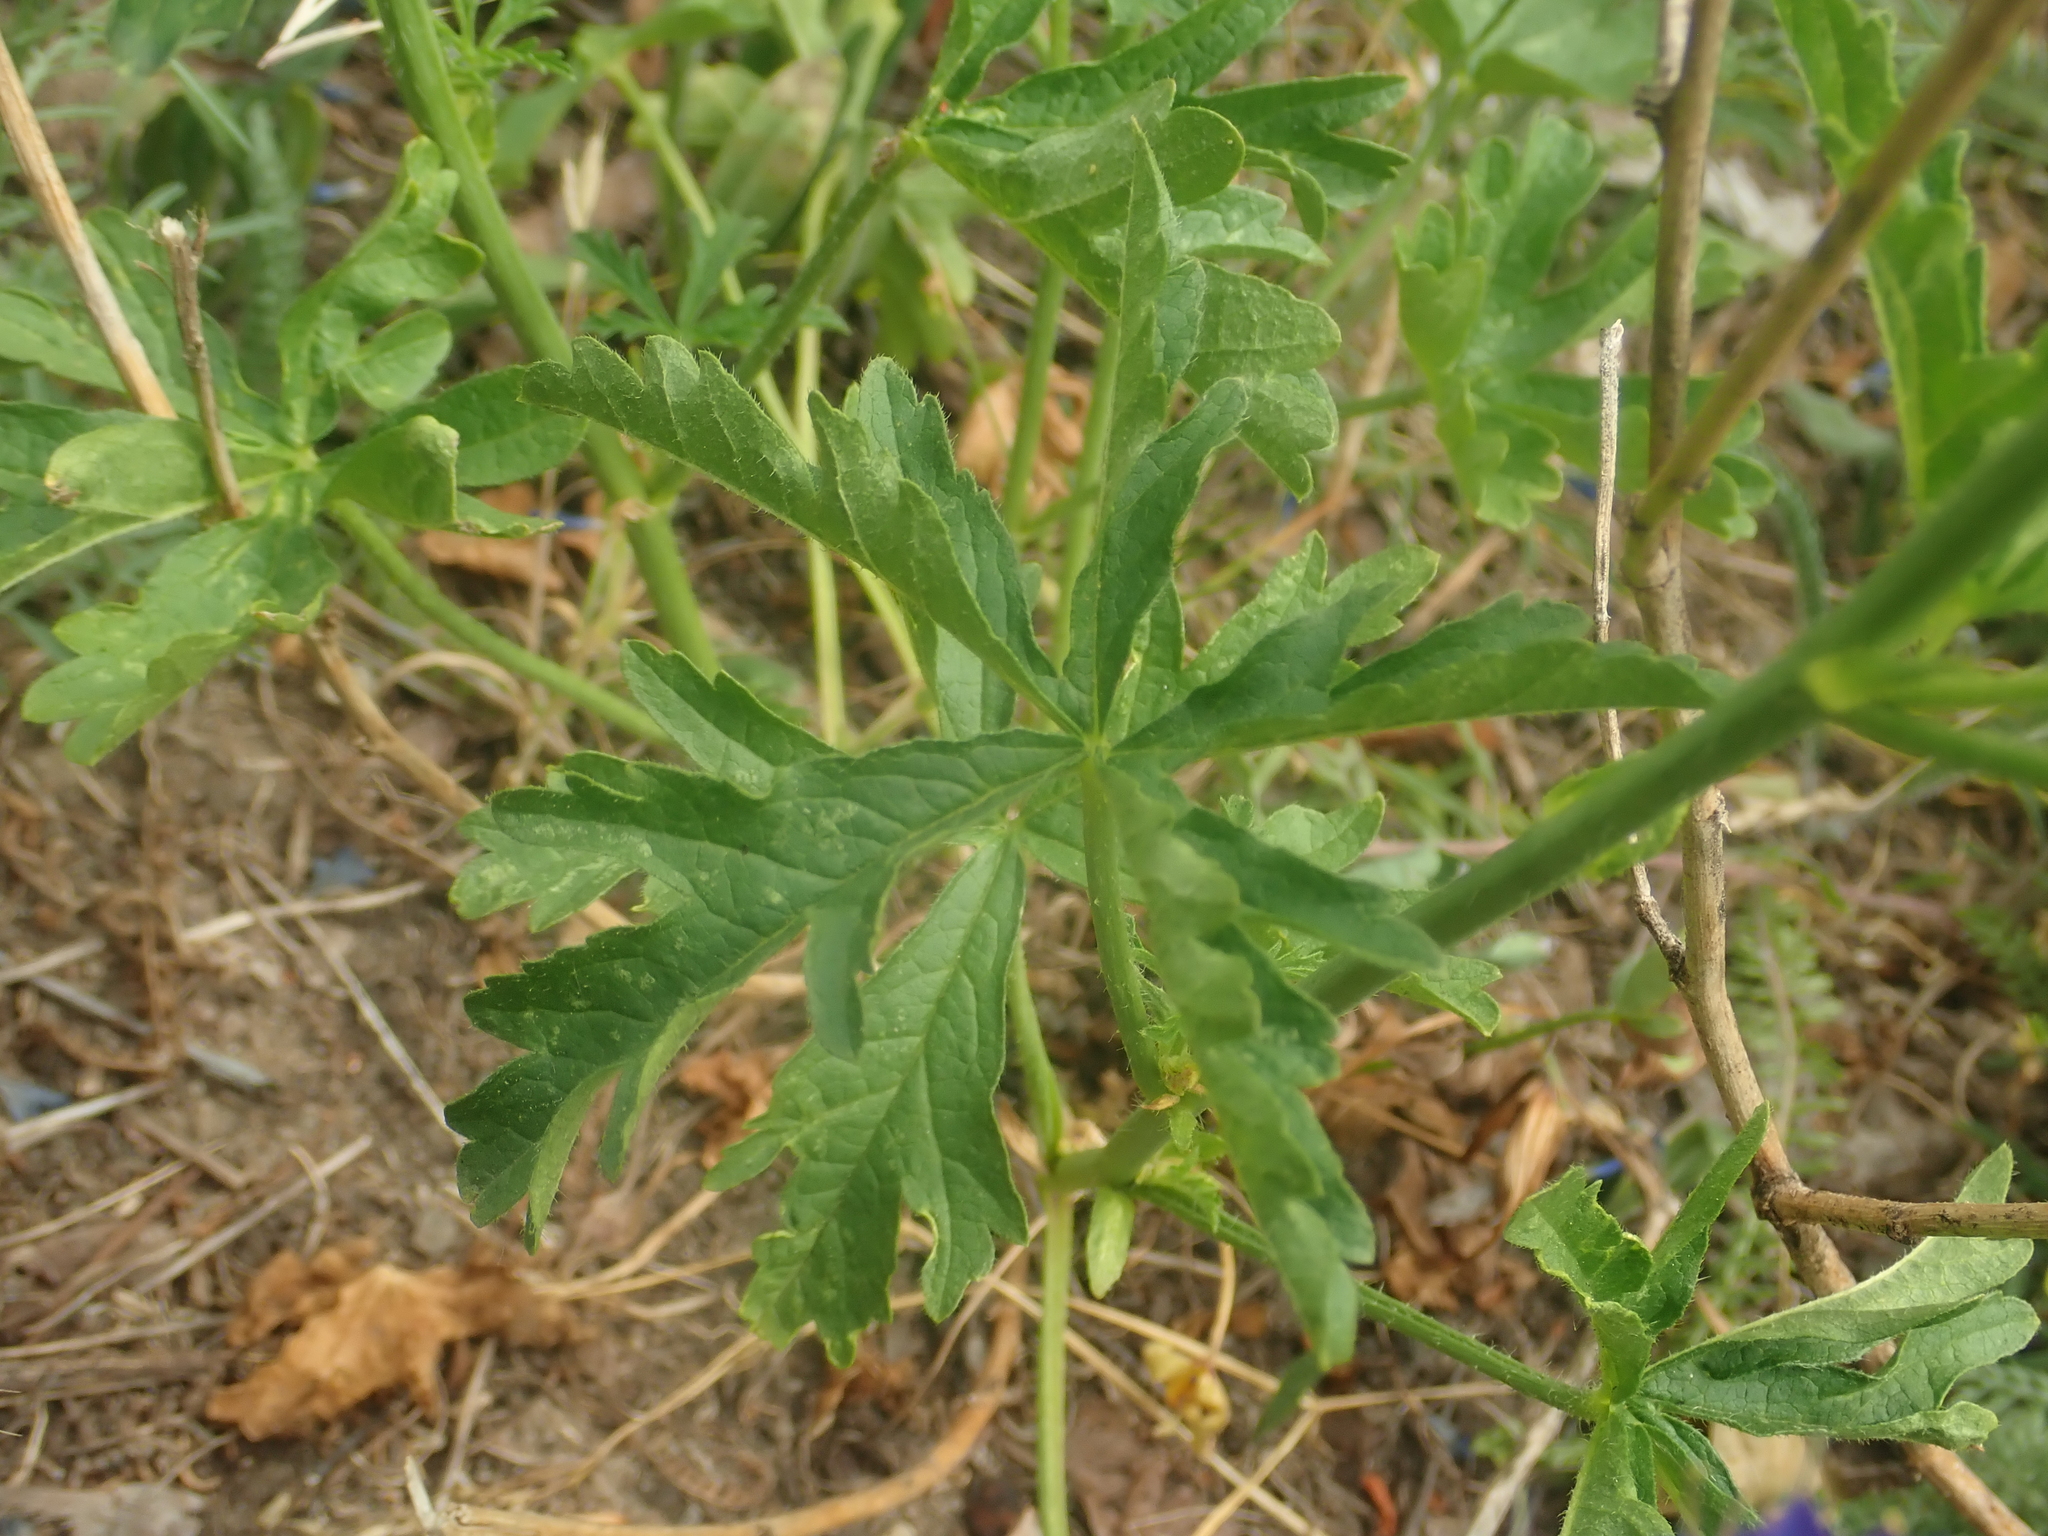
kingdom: Plantae
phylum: Tracheophyta
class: Magnoliopsida
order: Malvales
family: Malvaceae
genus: Malva
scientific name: Malva alcea
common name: Greater musk-mallow
